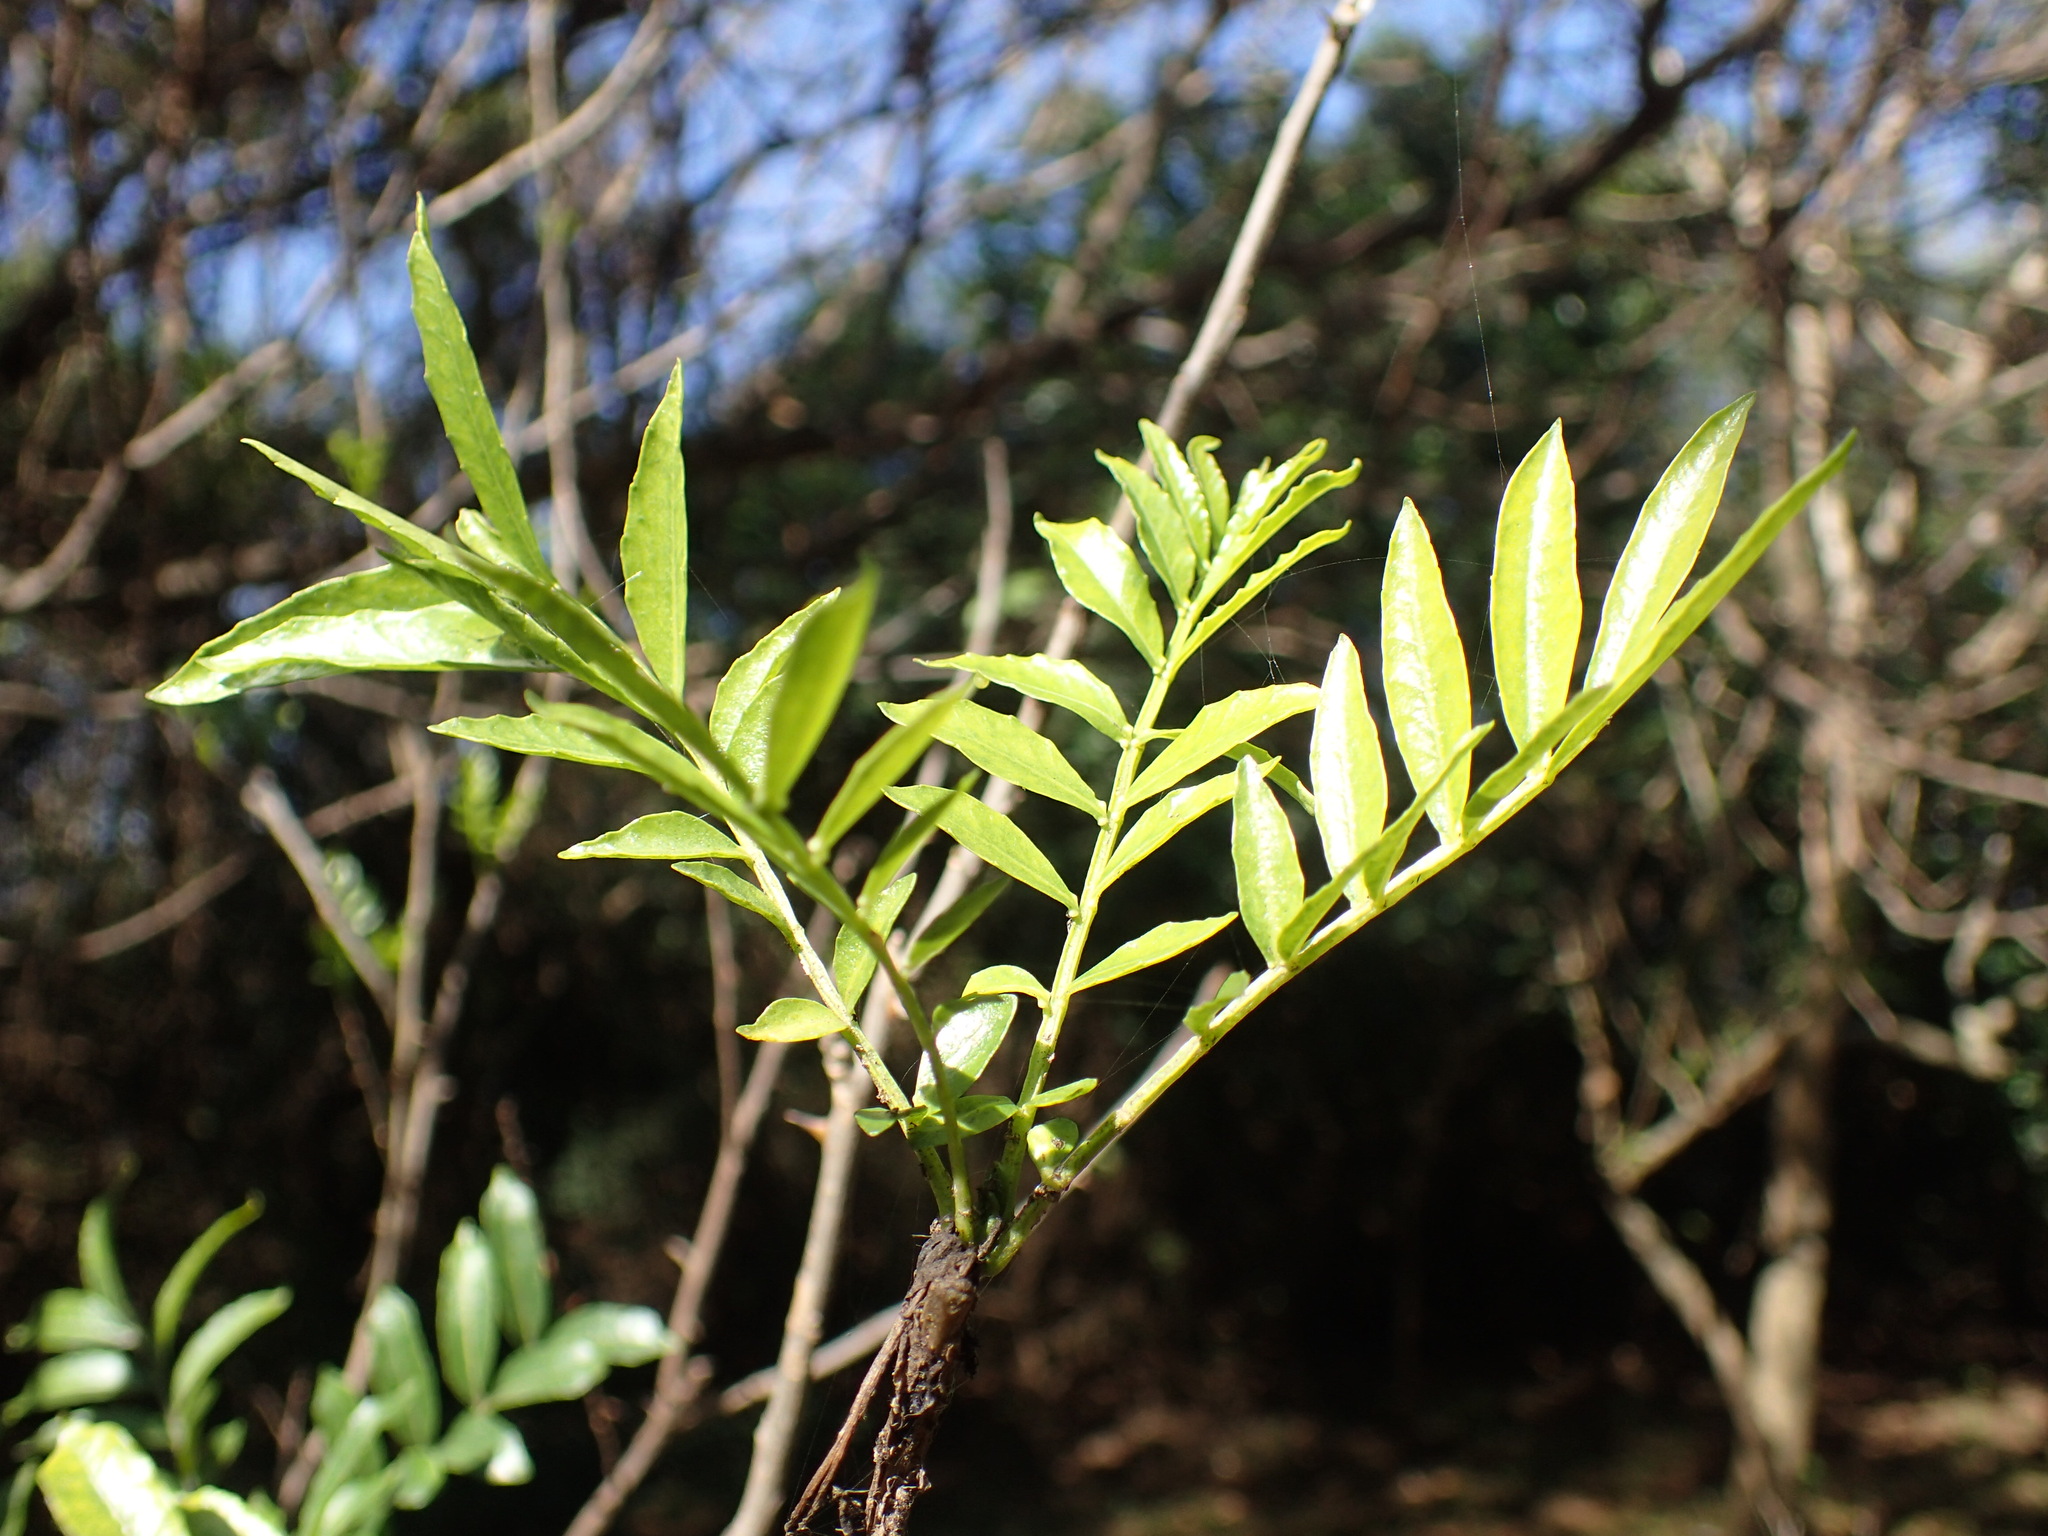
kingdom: Plantae
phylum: Tracheophyta
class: Magnoliopsida
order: Sapindales
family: Rutaceae
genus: Zanthoxylum
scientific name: Zanthoxylum capense
